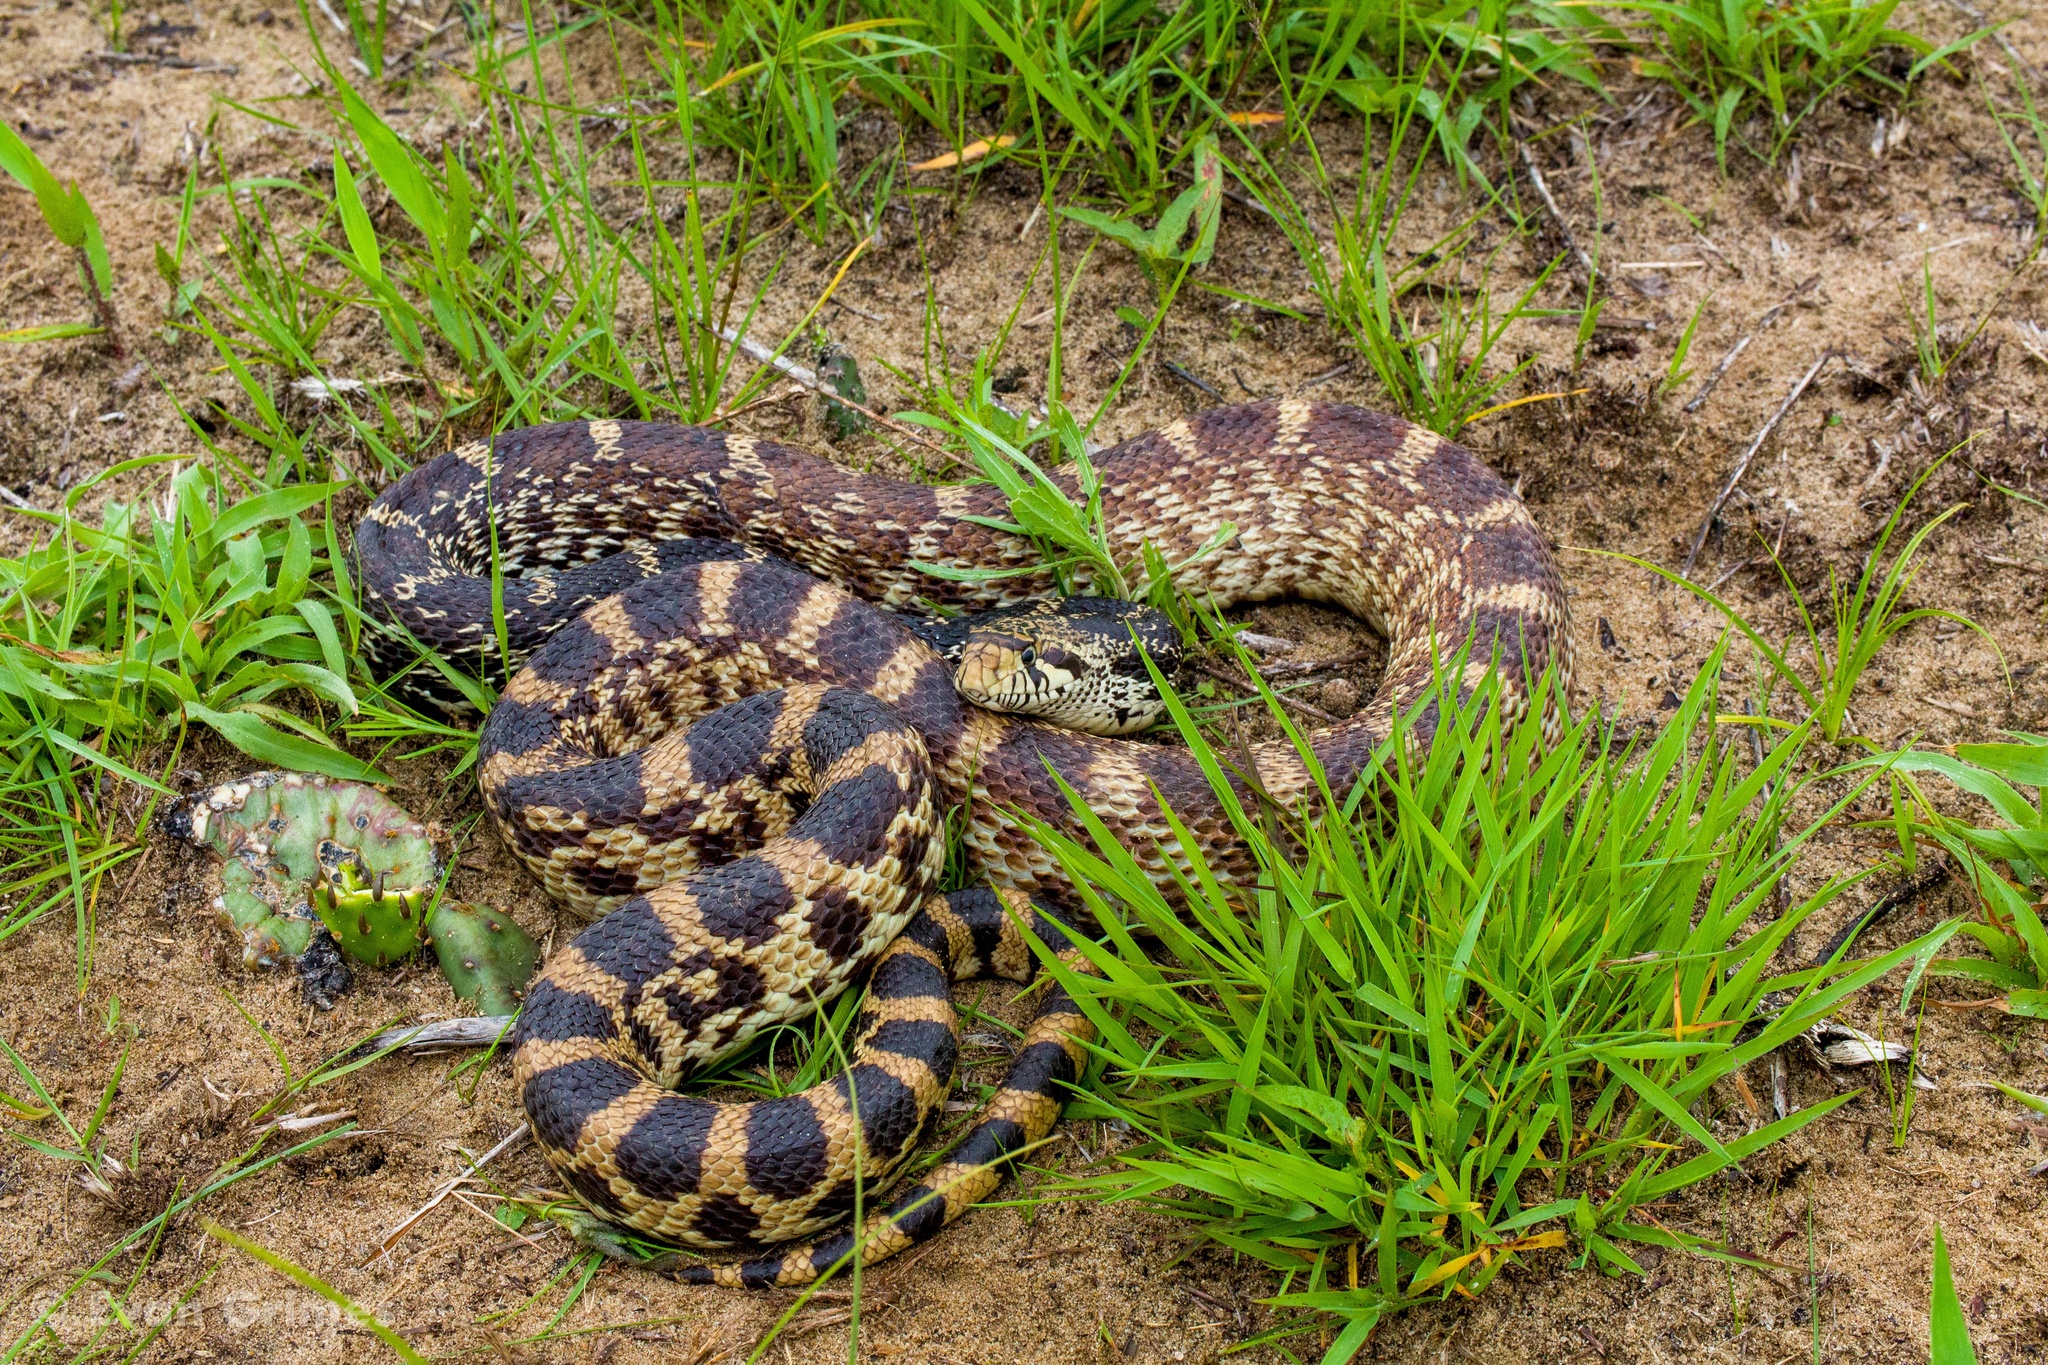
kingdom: Animalia
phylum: Chordata
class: Squamata
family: Colubridae
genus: Pituophis
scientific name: Pituophis catenifer
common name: Gopher snake
